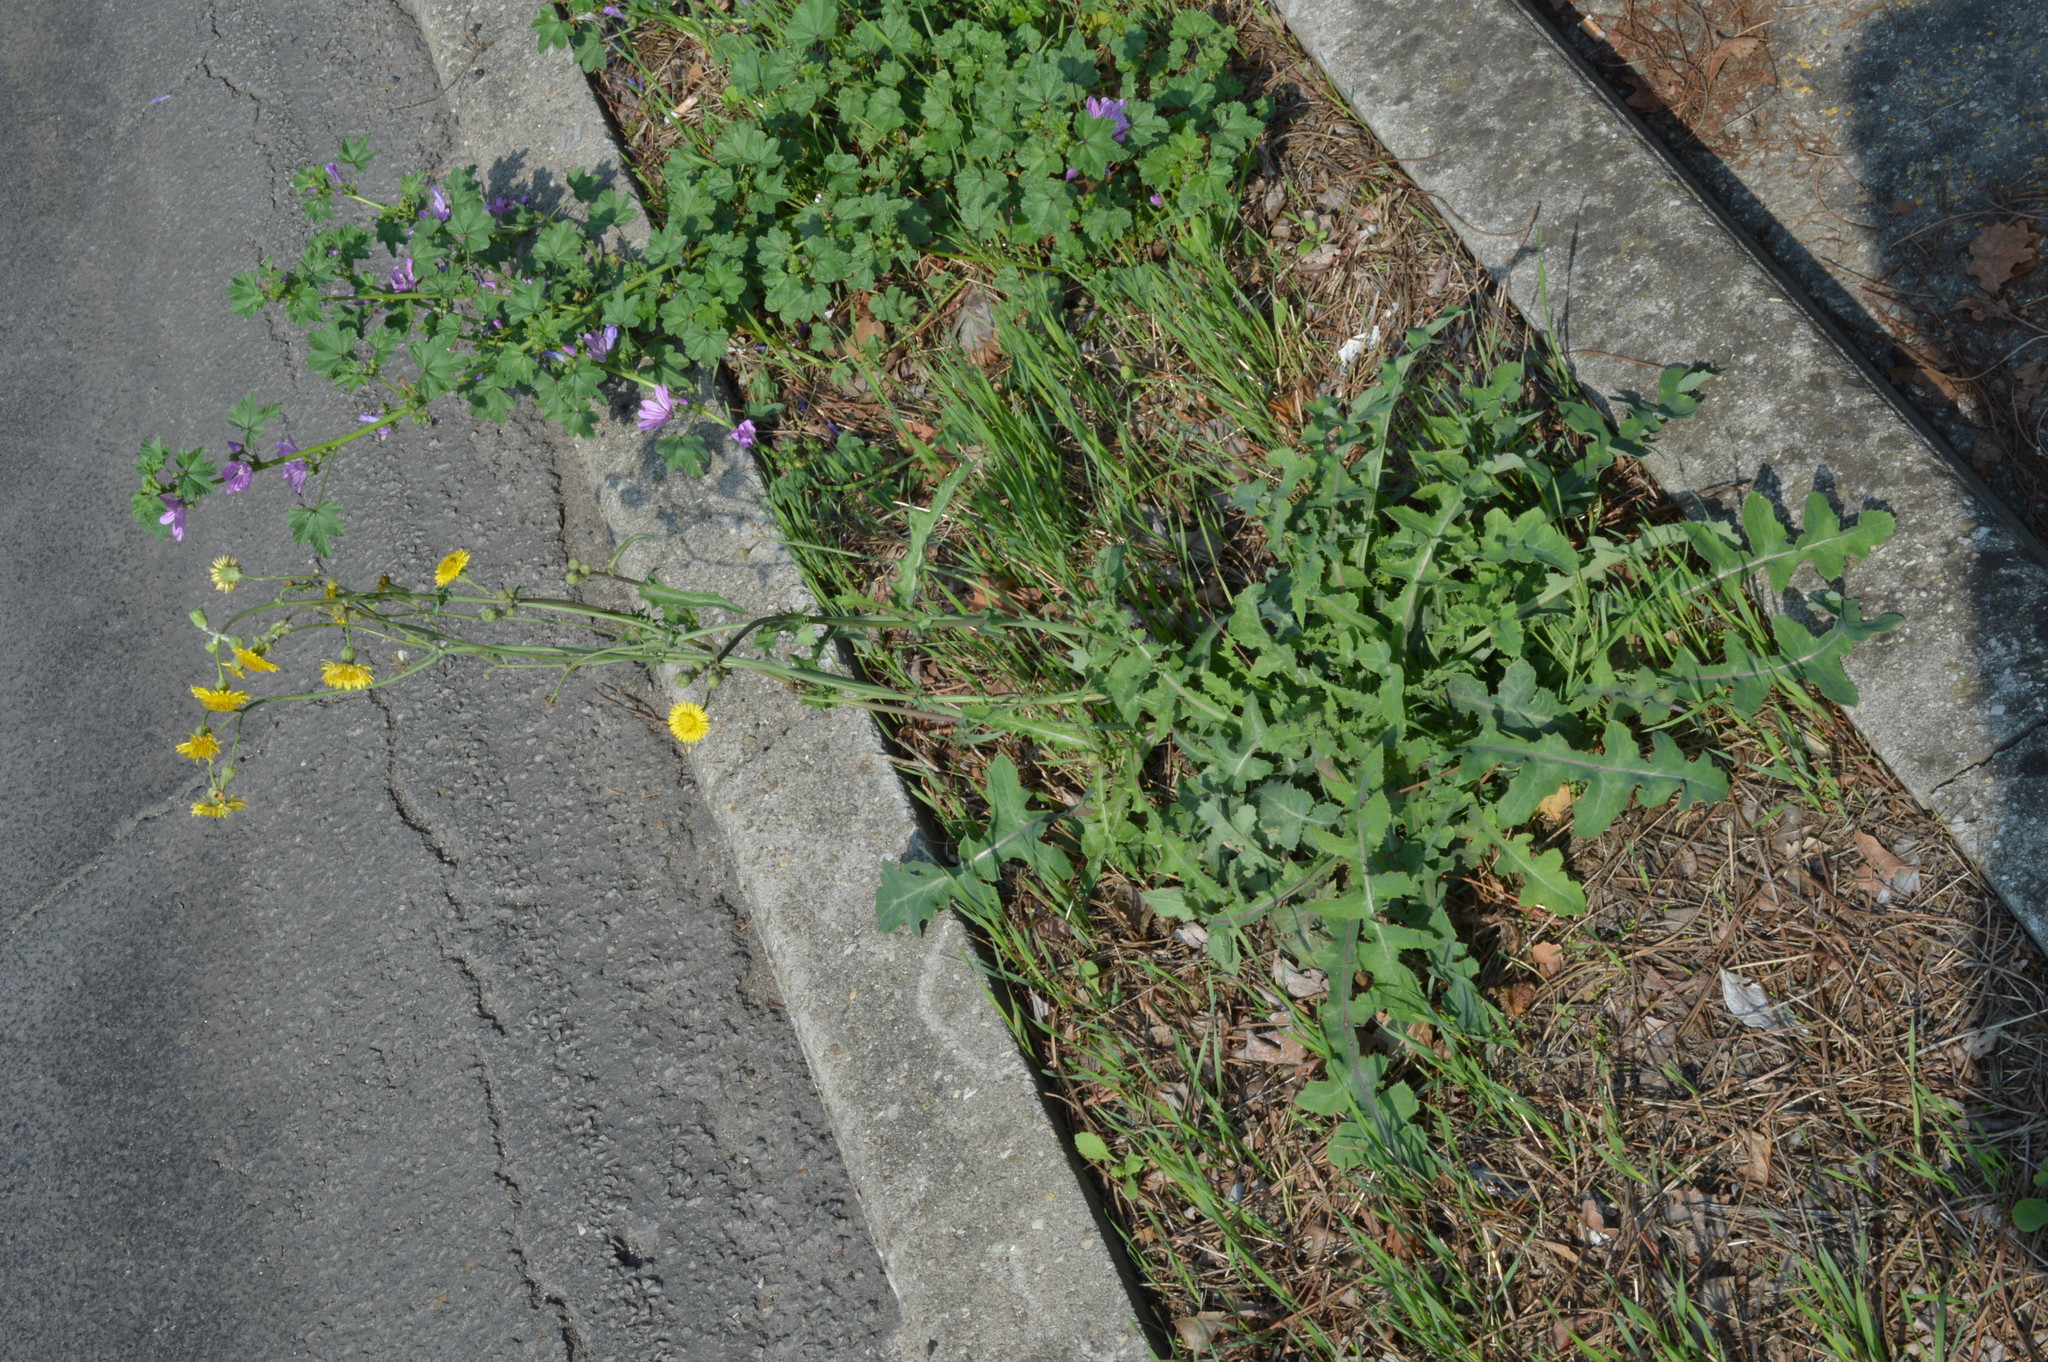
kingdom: Plantae
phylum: Tracheophyta
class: Magnoliopsida
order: Asterales
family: Asteraceae
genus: Sonchus
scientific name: Sonchus oleraceus
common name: Common sowthistle
